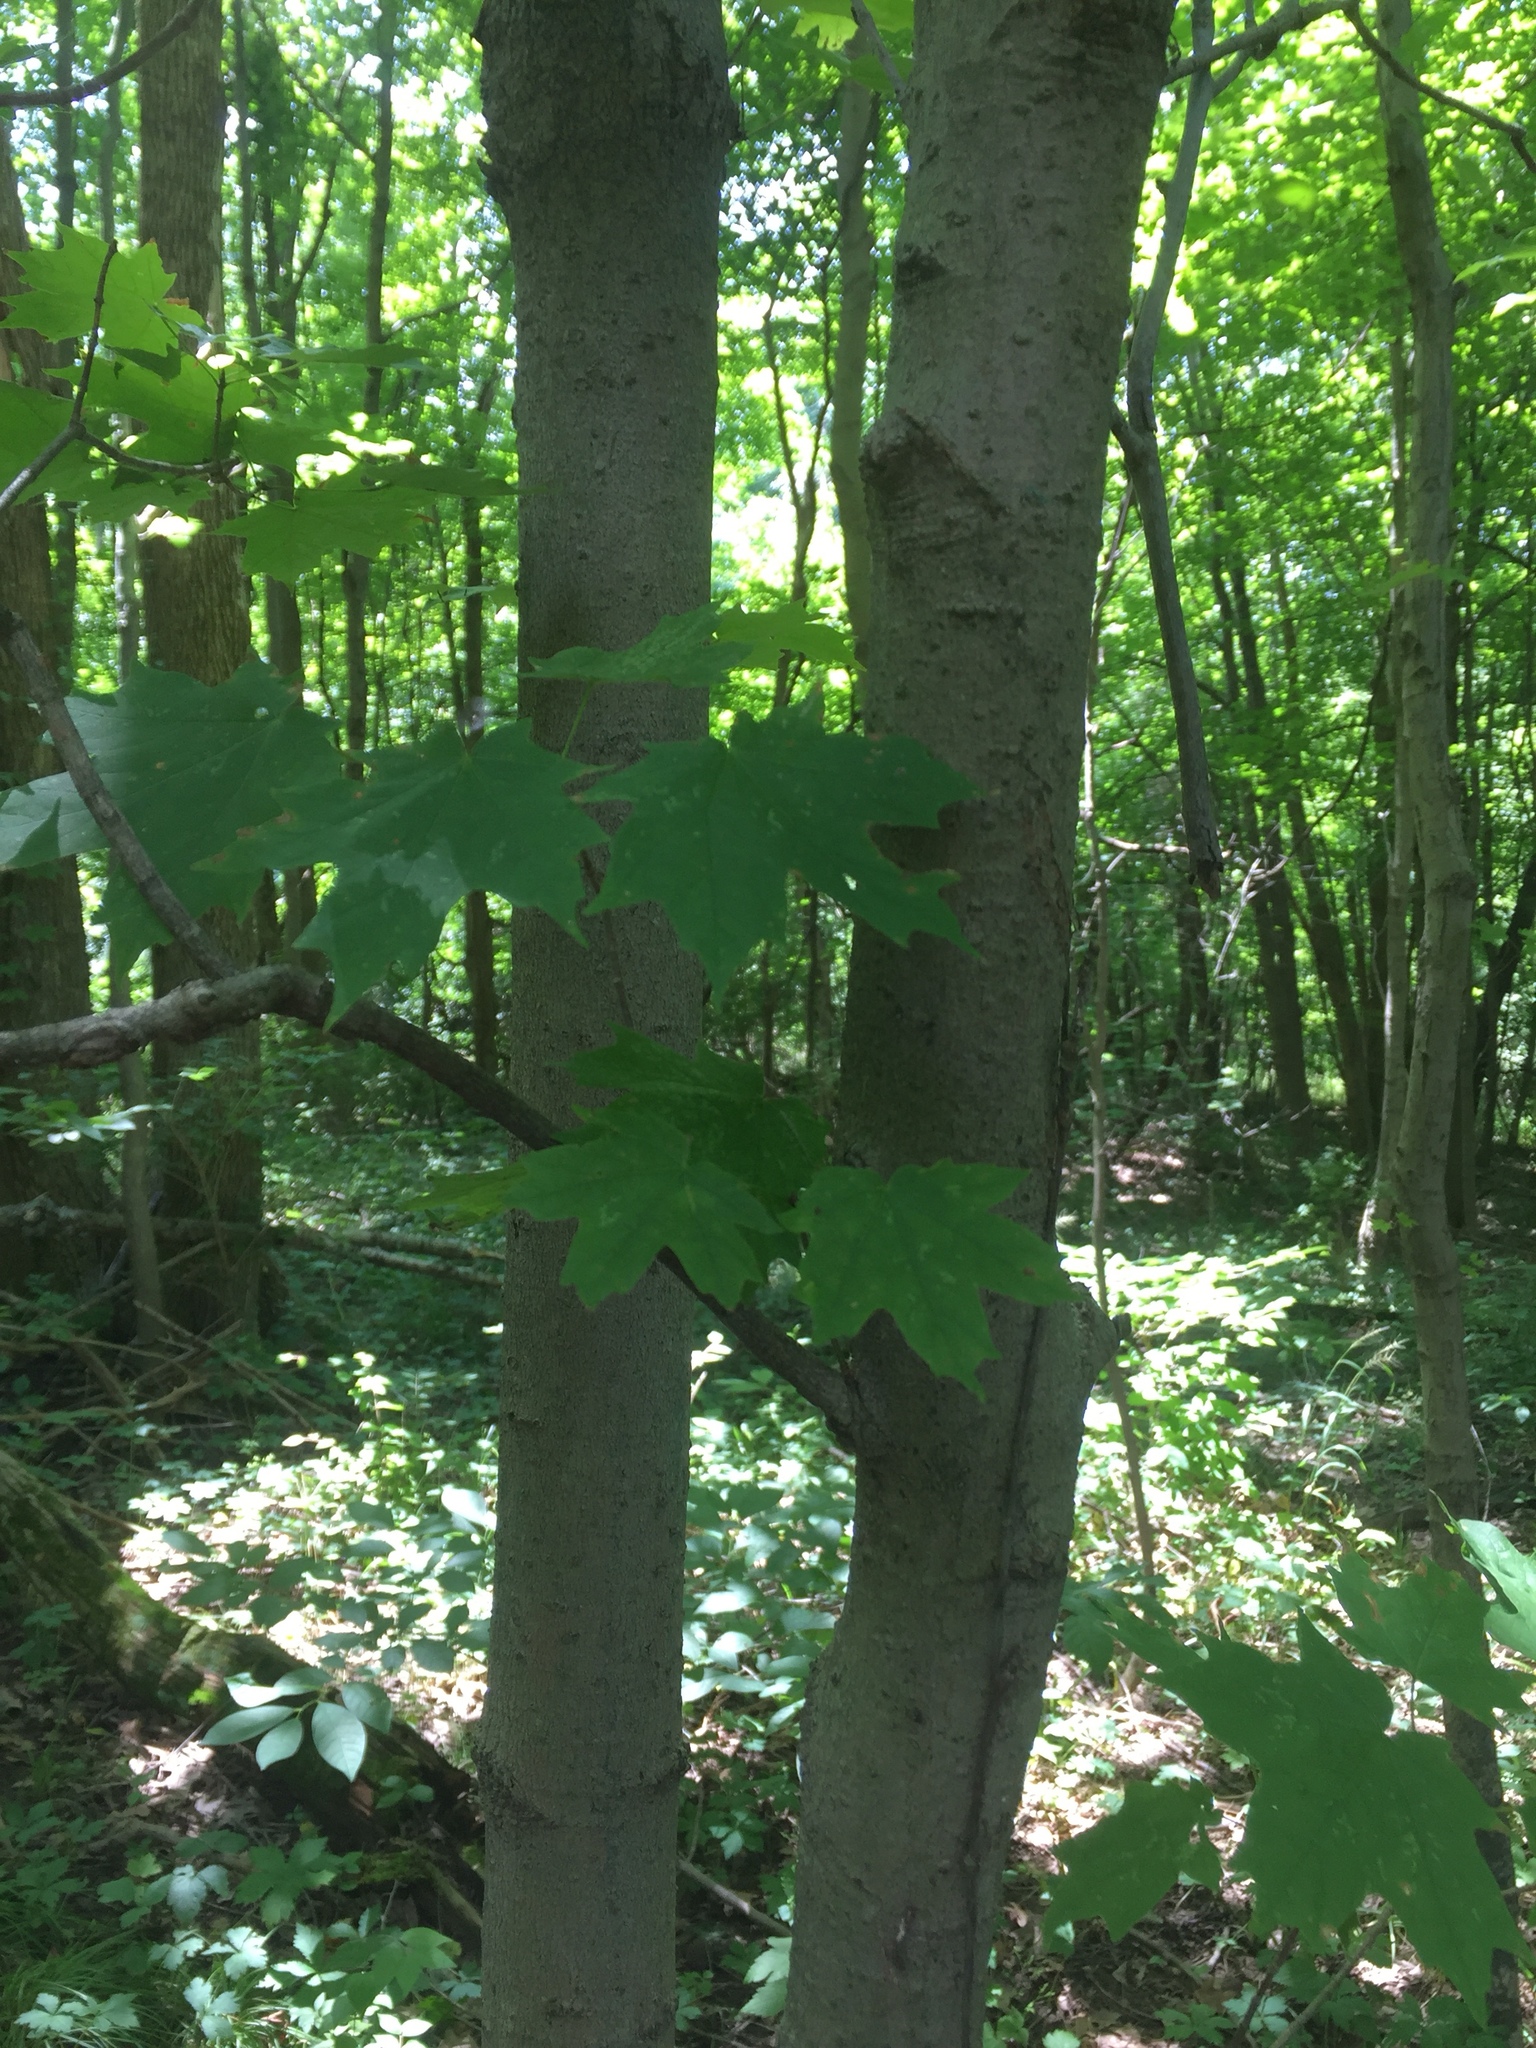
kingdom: Plantae
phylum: Tracheophyta
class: Magnoliopsida
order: Sapindales
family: Sapindaceae
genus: Acer
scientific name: Acer saccharum
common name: Sugar maple
